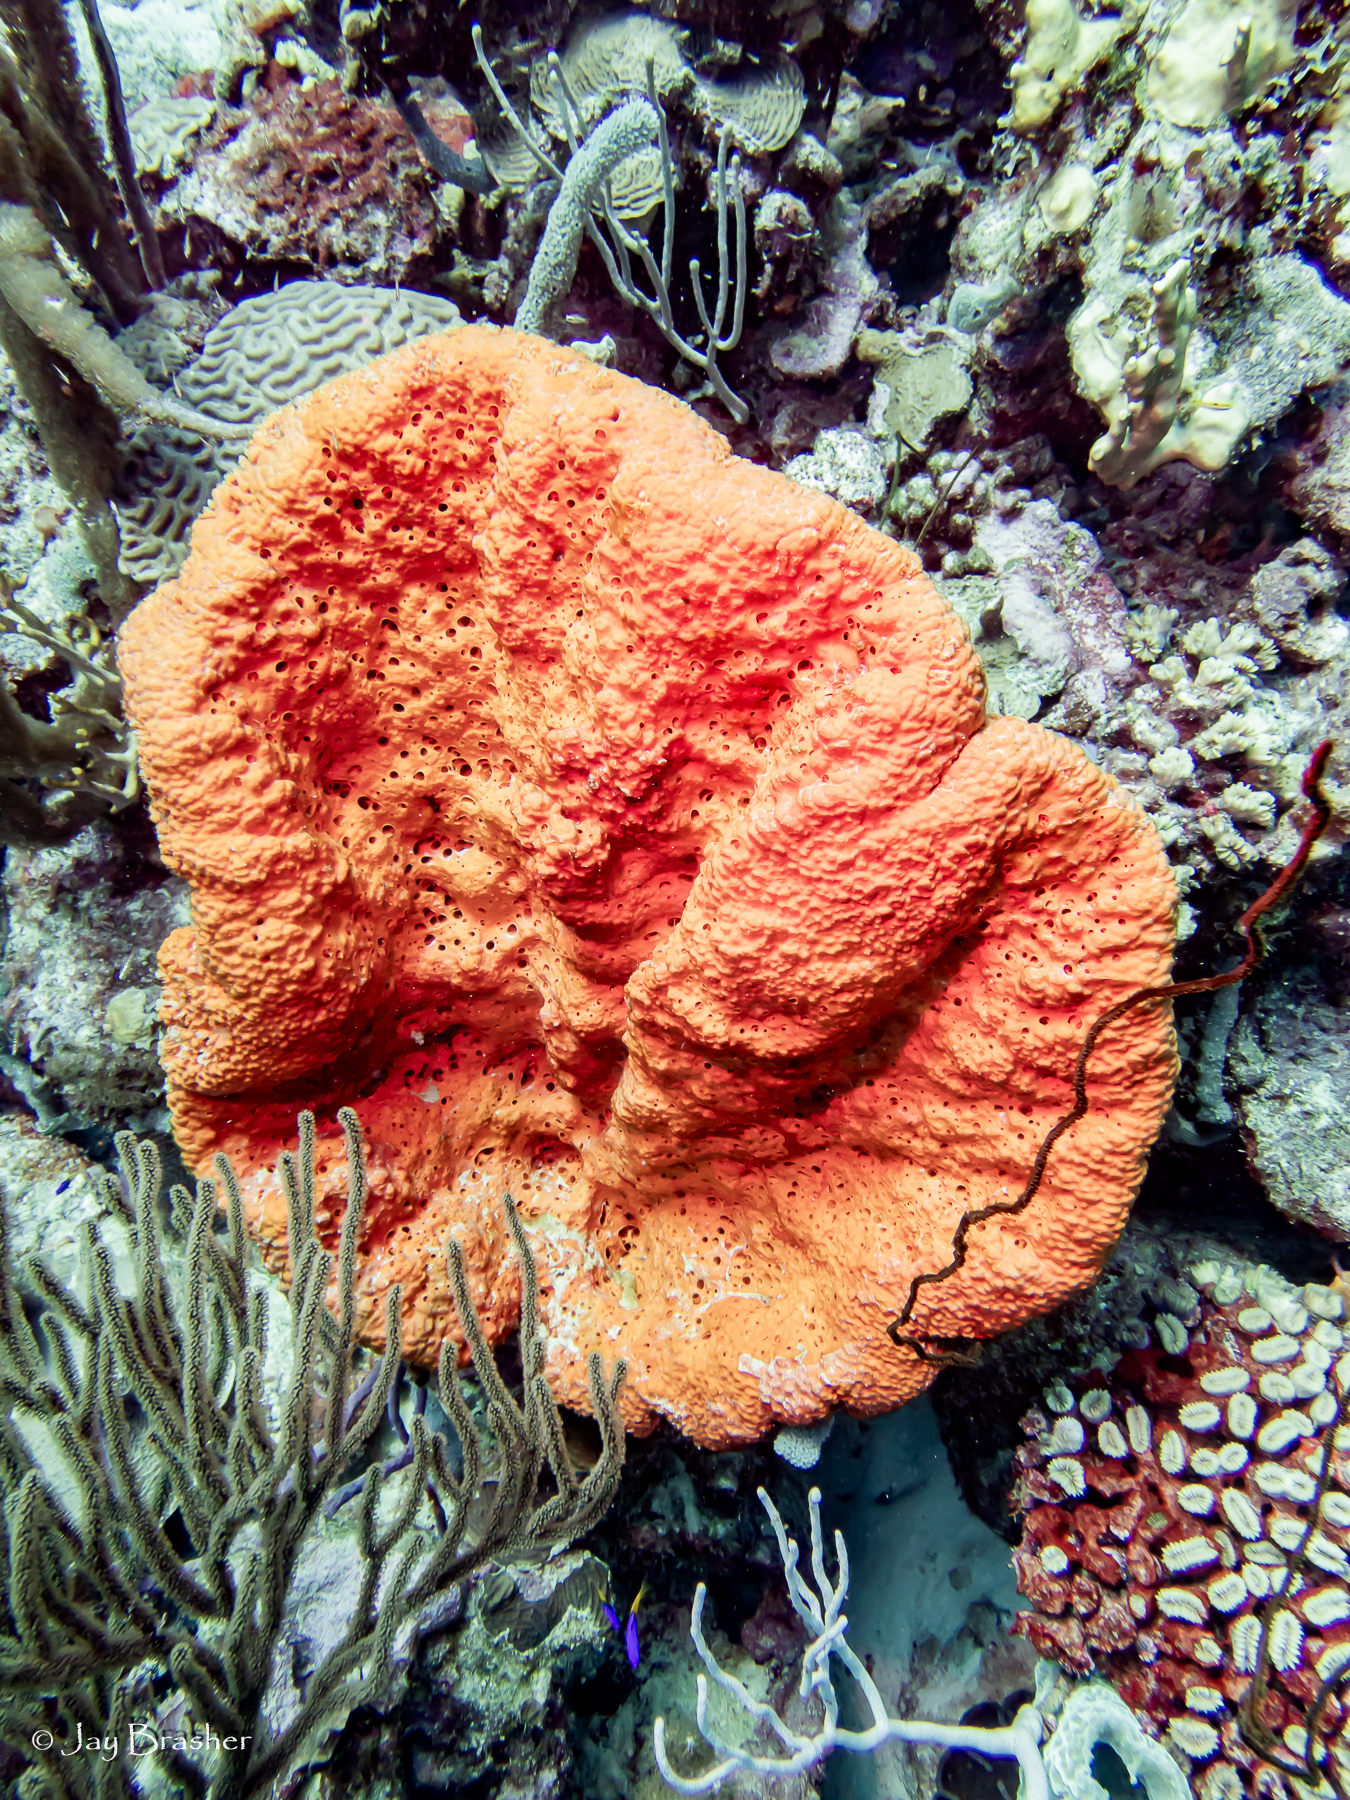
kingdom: Animalia
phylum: Cnidaria
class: Anthozoa
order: Scleractinia
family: Meandrinidae
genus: Eusmilia
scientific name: Eusmilia fastigiata
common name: Smooth flower coral
